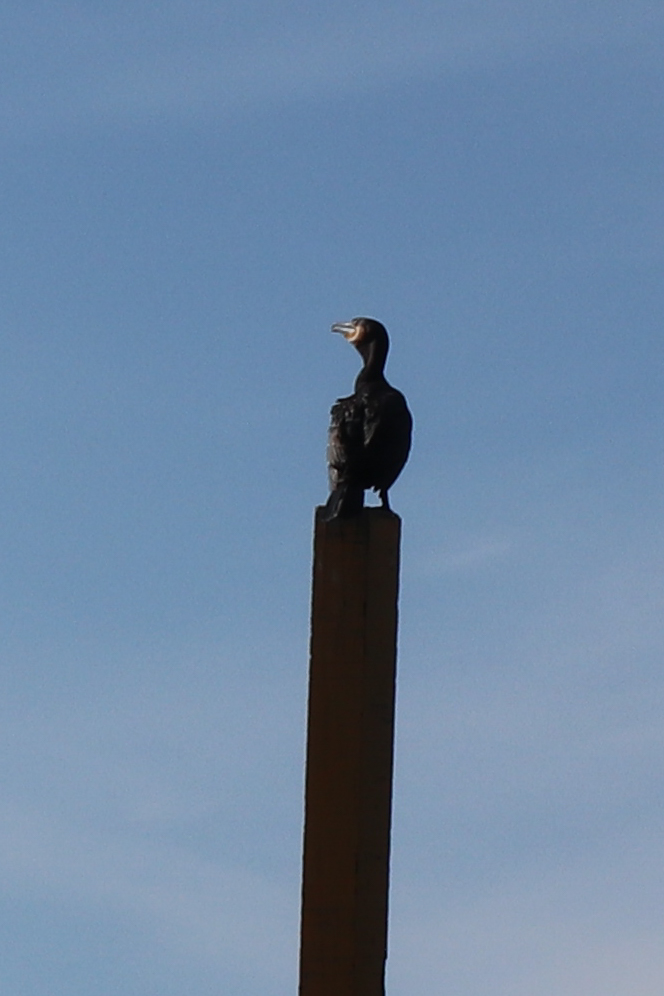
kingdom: Animalia
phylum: Chordata
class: Aves
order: Suliformes
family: Phalacrocoracidae
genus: Phalacrocorax
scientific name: Phalacrocorax carbo
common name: Great cormorant
